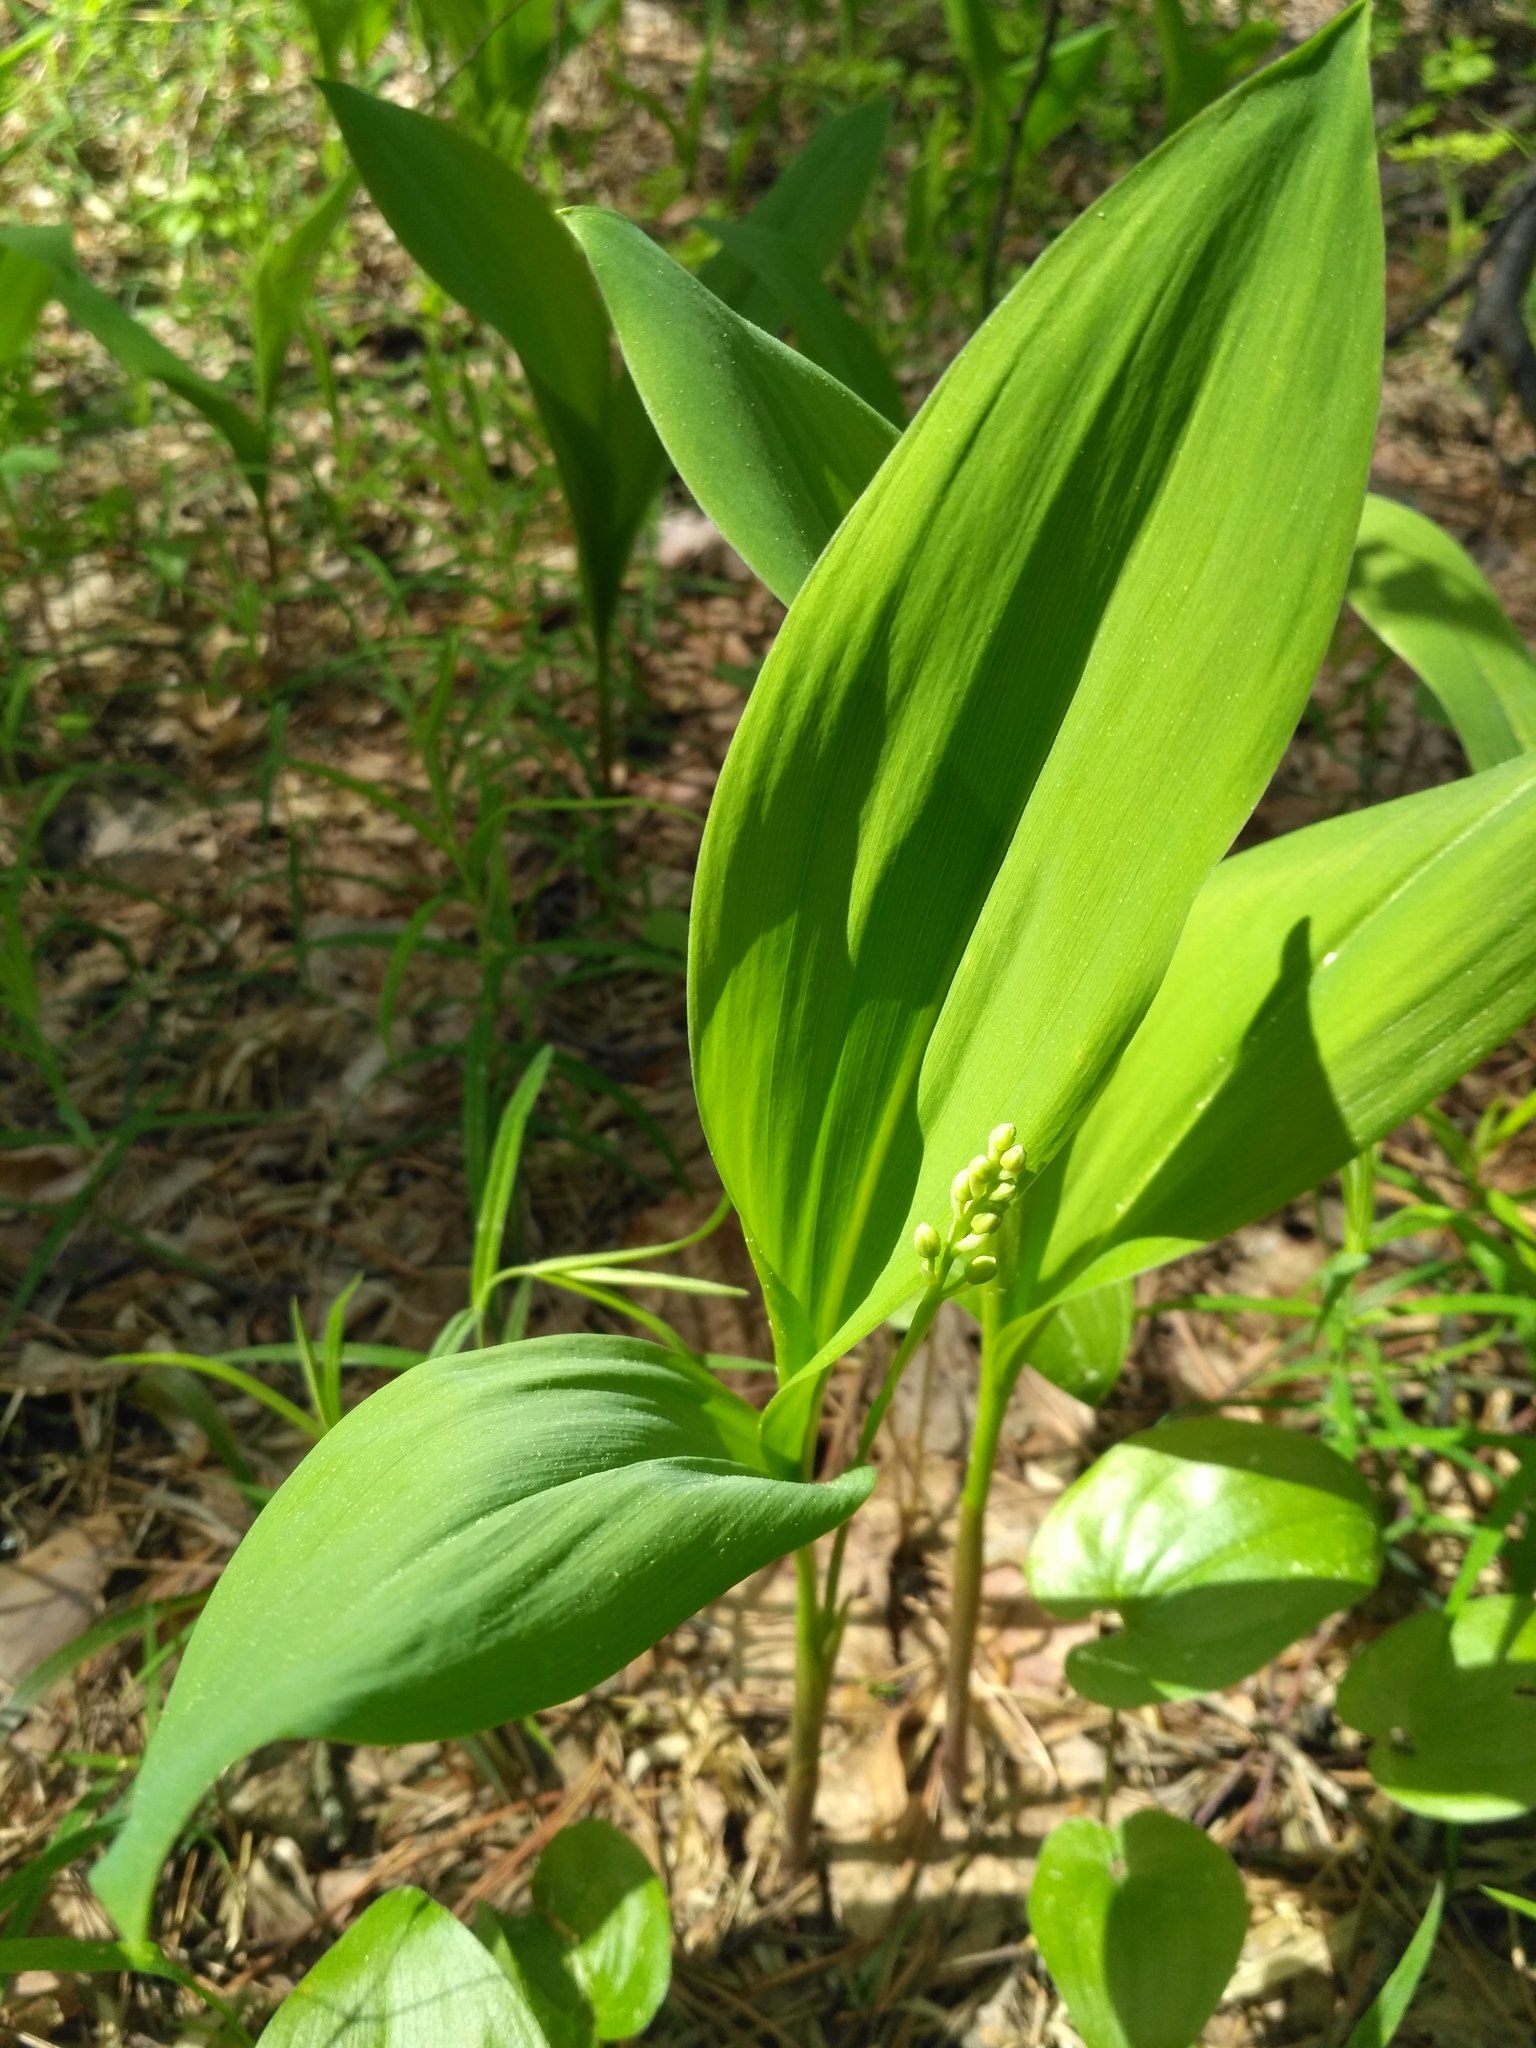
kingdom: Plantae
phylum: Tracheophyta
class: Liliopsida
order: Asparagales
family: Asparagaceae
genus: Convallaria
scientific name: Convallaria majalis
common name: Lily-of-the-valley
